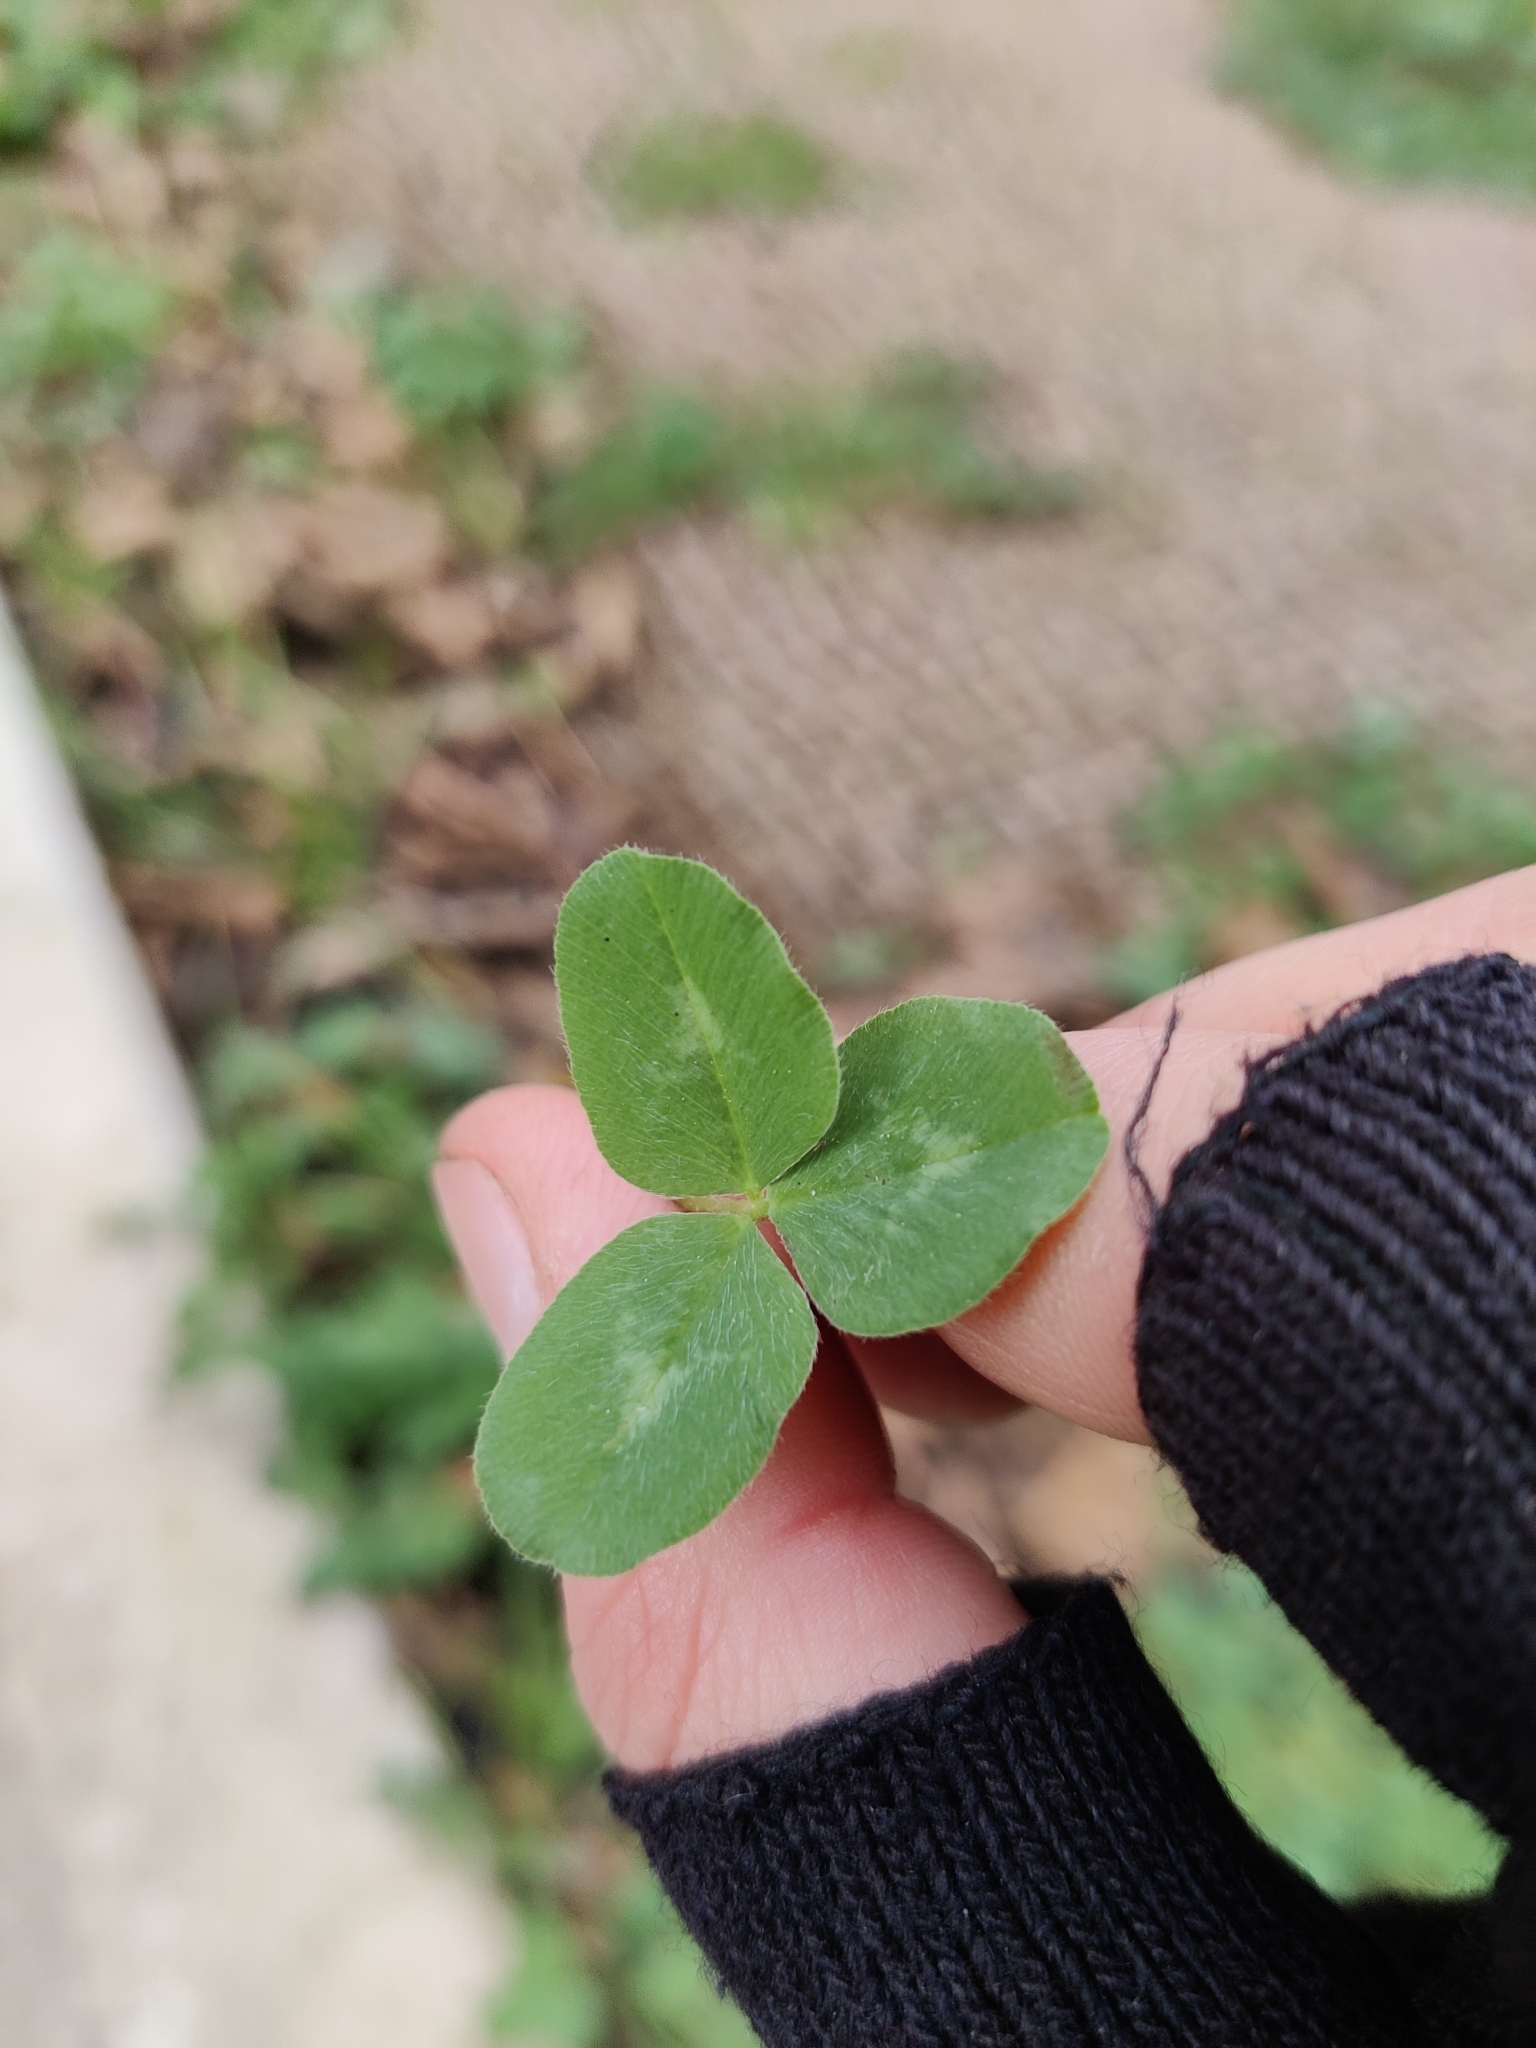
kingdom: Plantae
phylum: Tracheophyta
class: Magnoliopsida
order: Fabales
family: Fabaceae
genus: Trifolium
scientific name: Trifolium pratense
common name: Red clover
